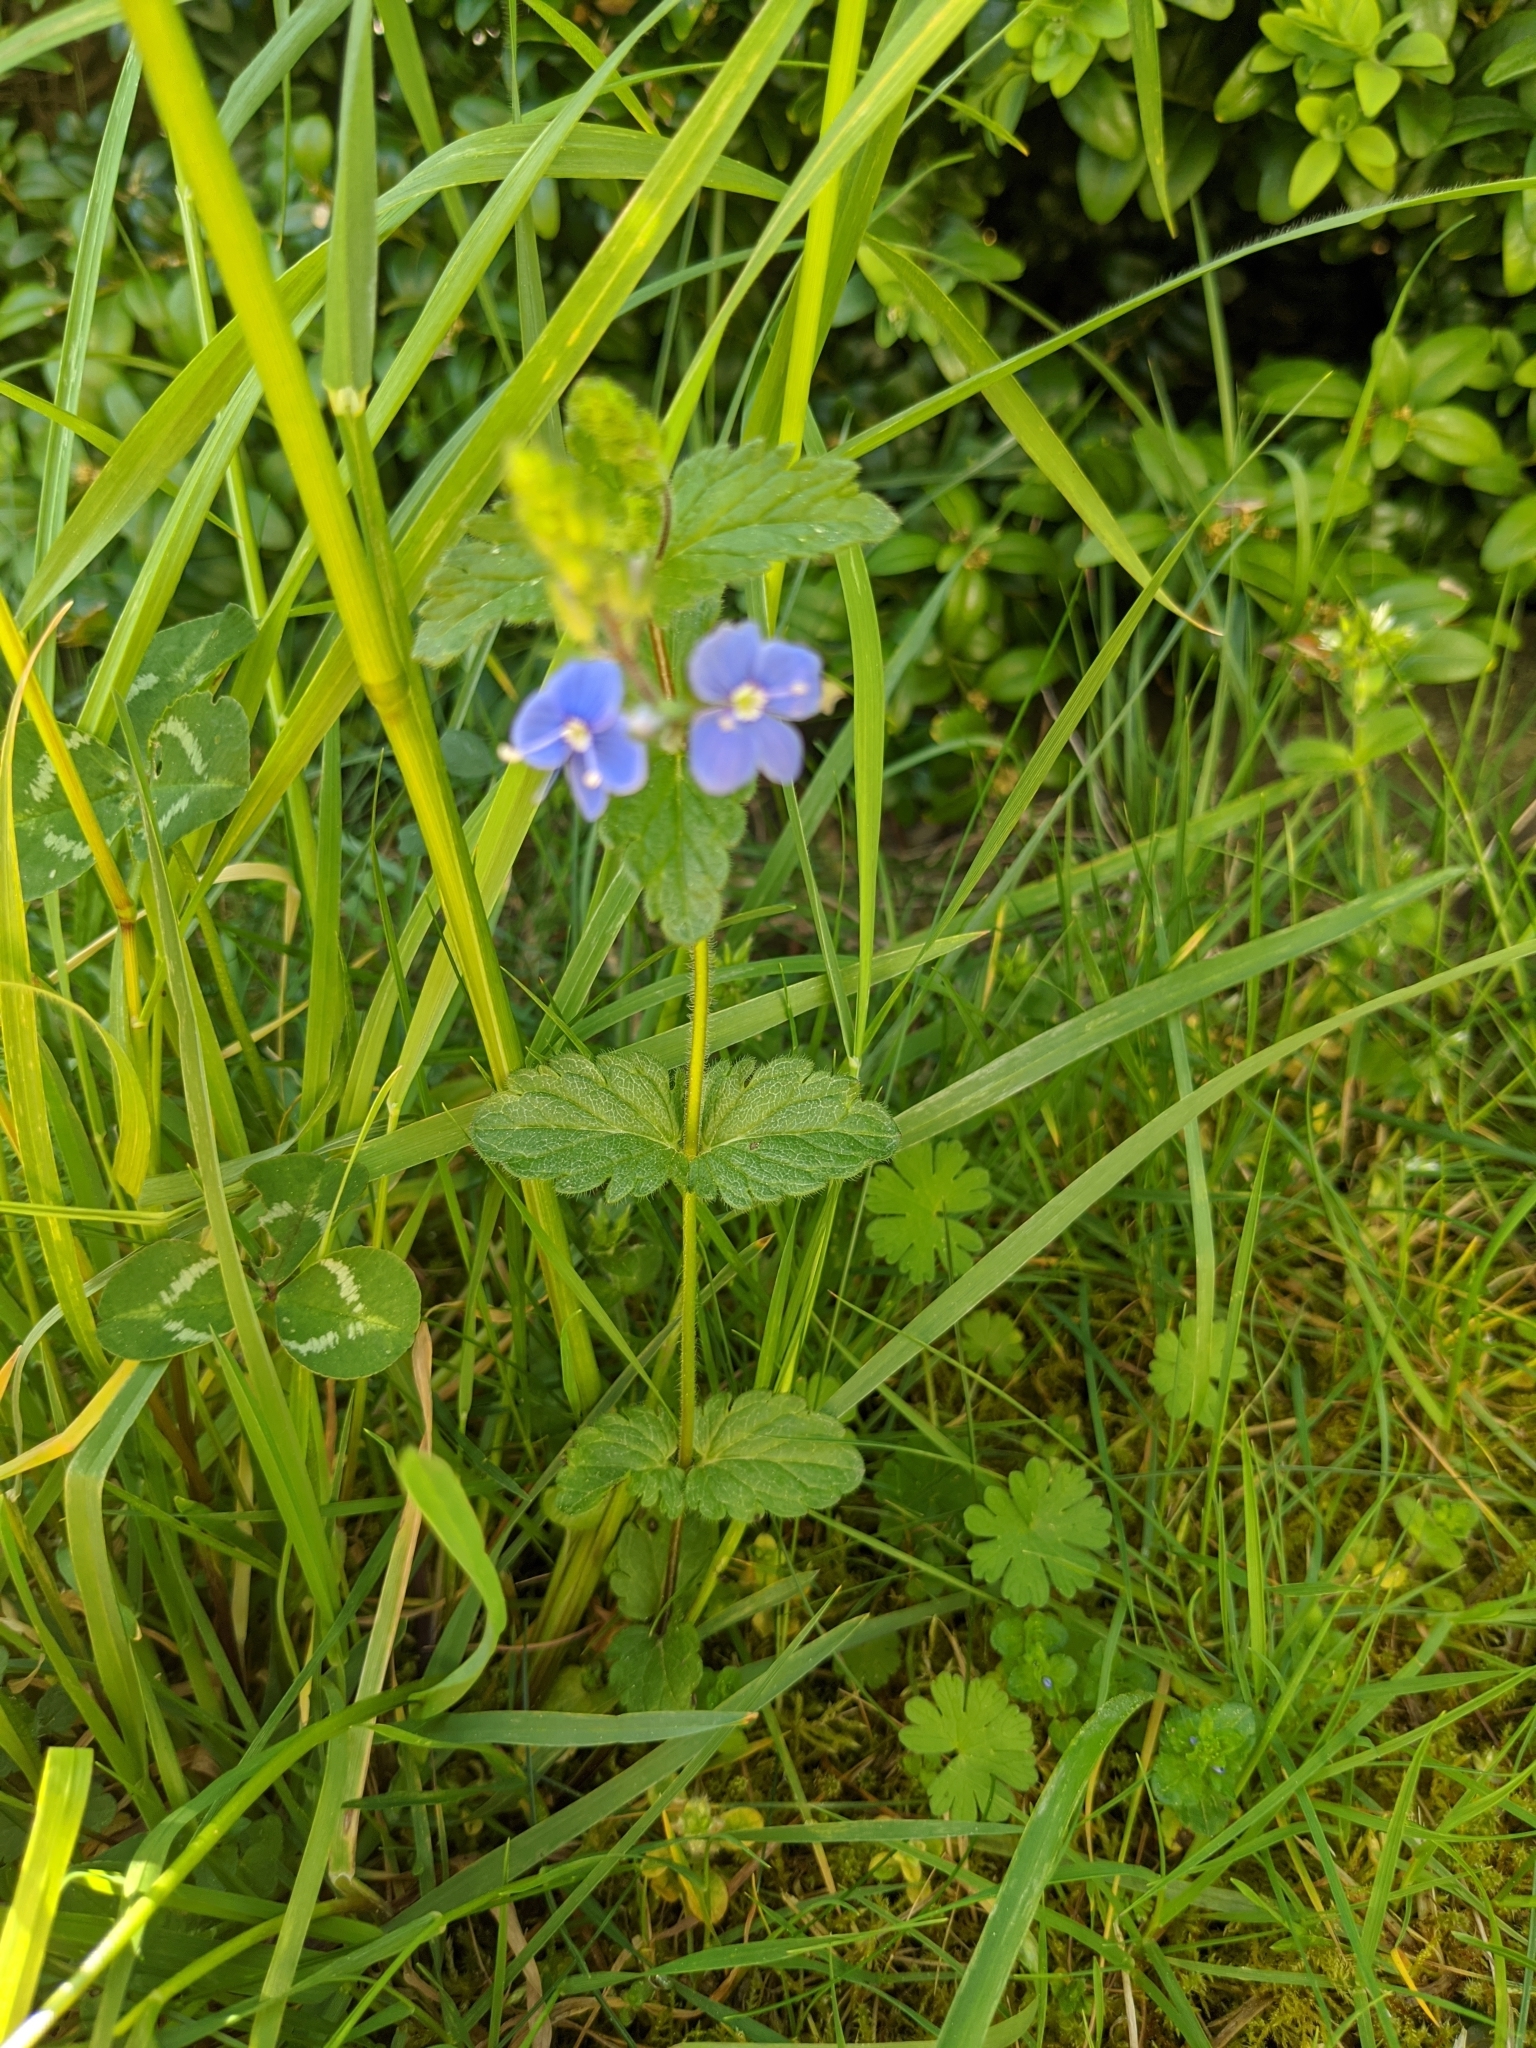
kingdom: Plantae
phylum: Tracheophyta
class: Magnoliopsida
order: Lamiales
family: Plantaginaceae
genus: Veronica
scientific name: Veronica chamaedrys
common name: Germander speedwell
